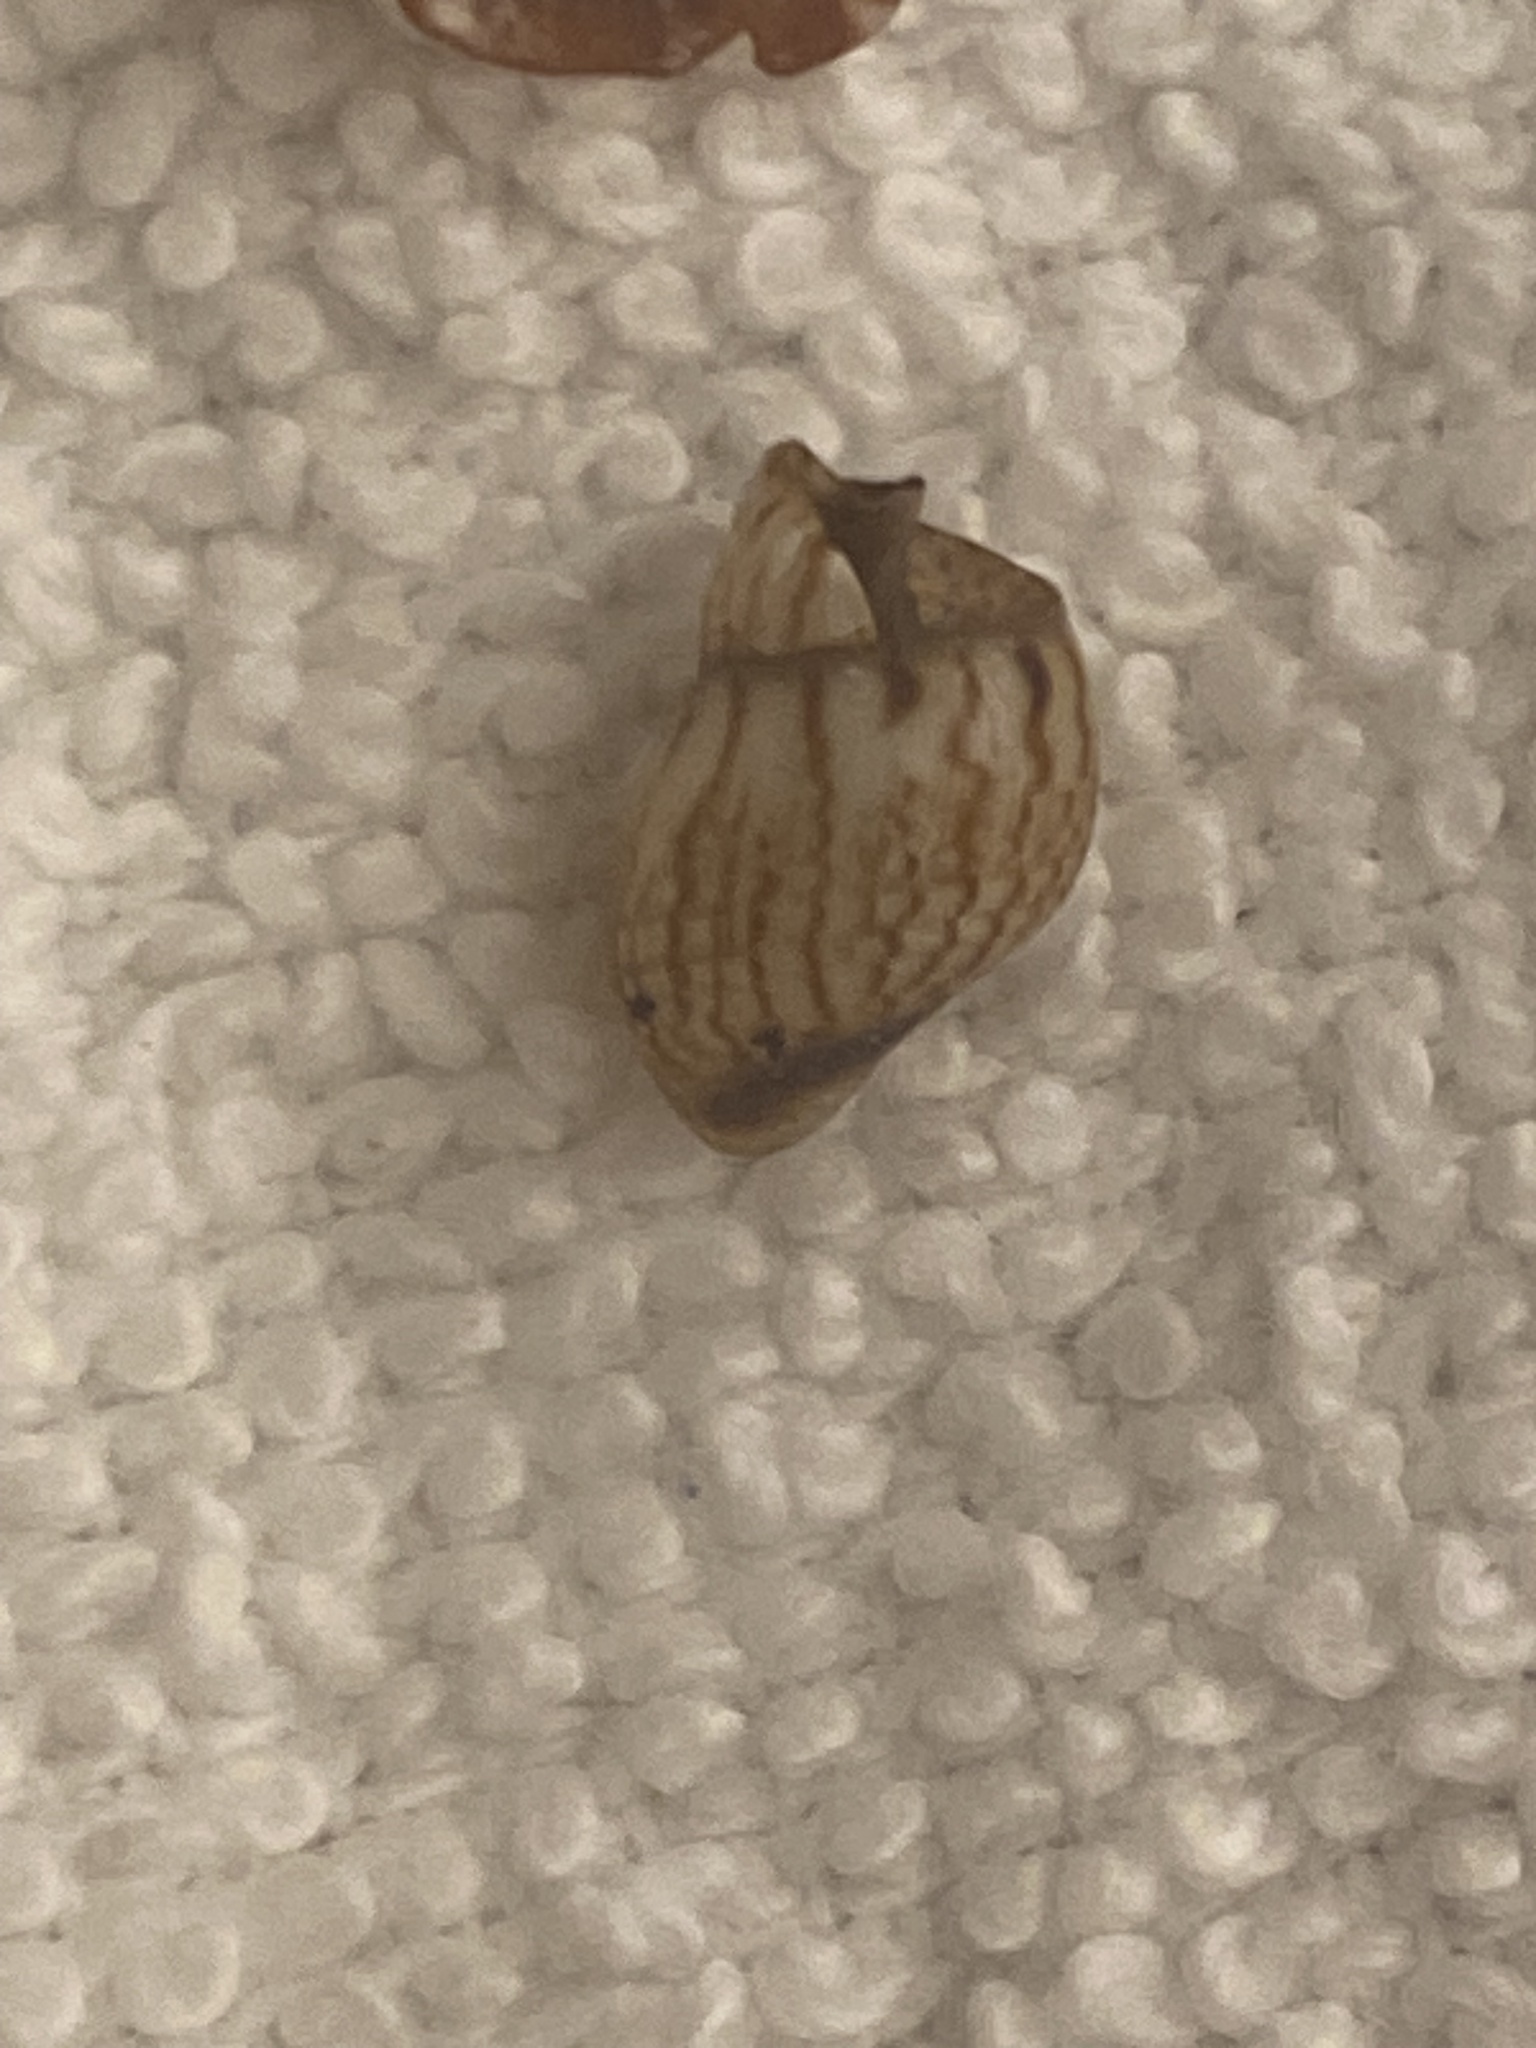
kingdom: Animalia
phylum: Mollusca
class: Gastropoda
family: Thiaridae
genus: Melanoides
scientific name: Melanoides tuberculata
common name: Red-rim melania
